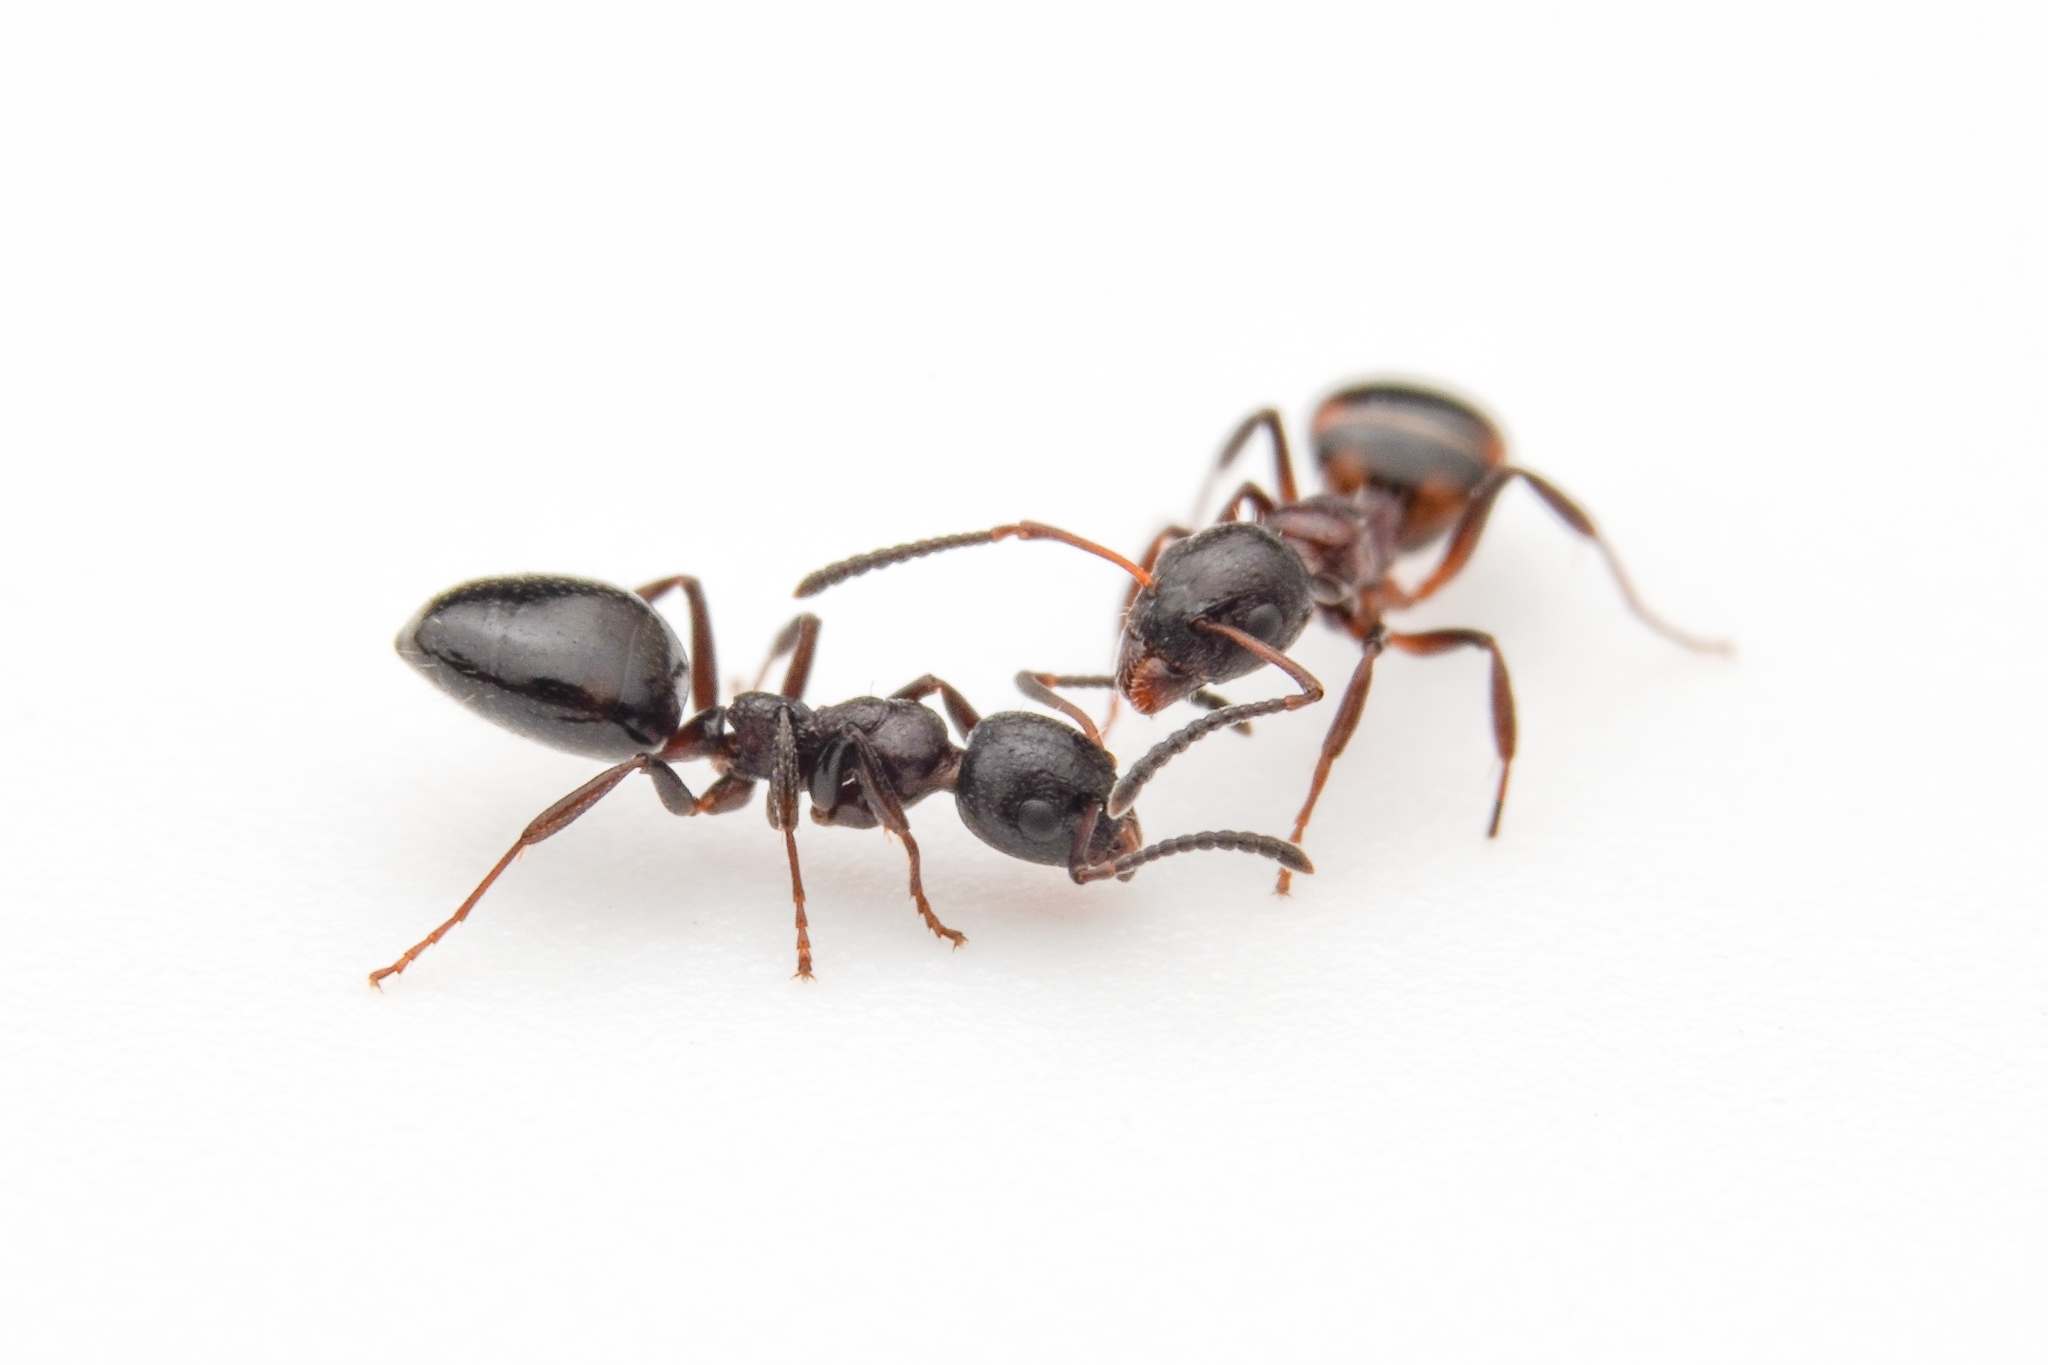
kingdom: Animalia
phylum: Arthropoda
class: Insecta
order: Hymenoptera
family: Formicidae
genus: Dolichoderus
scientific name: Dolichoderus pustulatus
